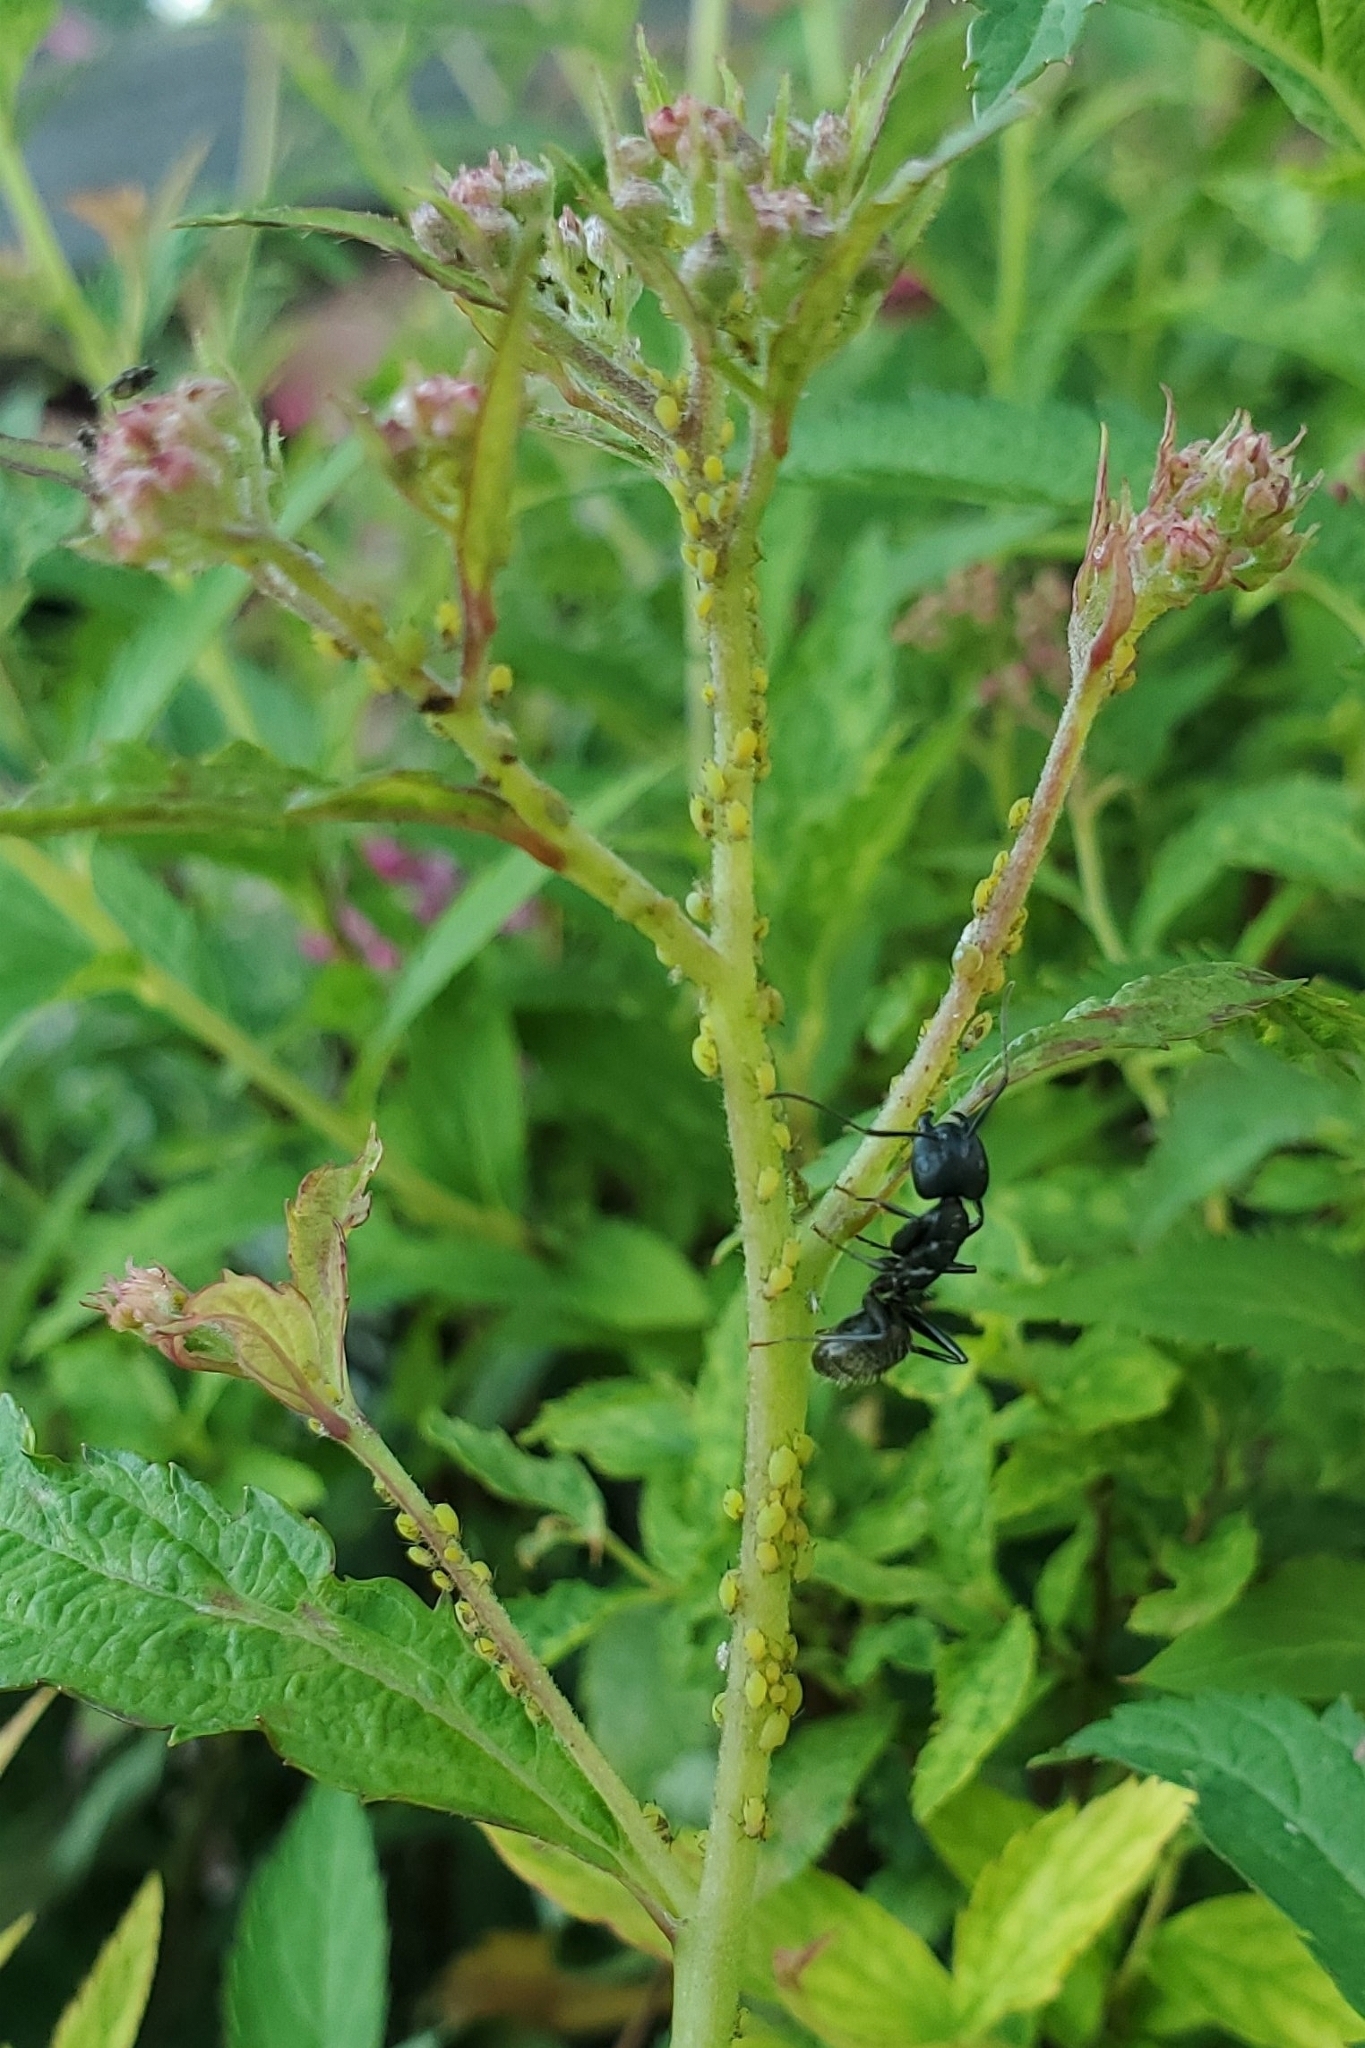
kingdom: Animalia
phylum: Arthropoda
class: Insecta
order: Hymenoptera
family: Formicidae
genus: Camponotus
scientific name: Camponotus pennsylvanicus
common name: Black carpenter ant
